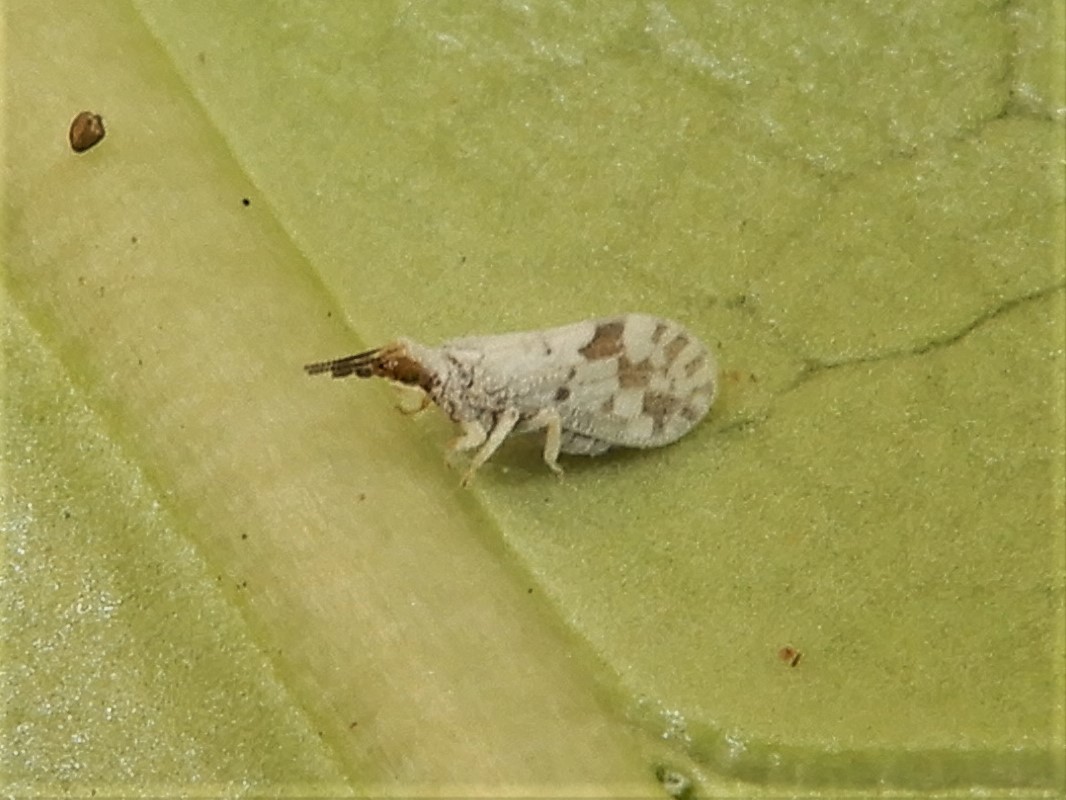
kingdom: Animalia
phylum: Arthropoda
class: Insecta
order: Neuroptera
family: Coniopterygidae
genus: Heteroconis
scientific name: Heteroconis ornata
